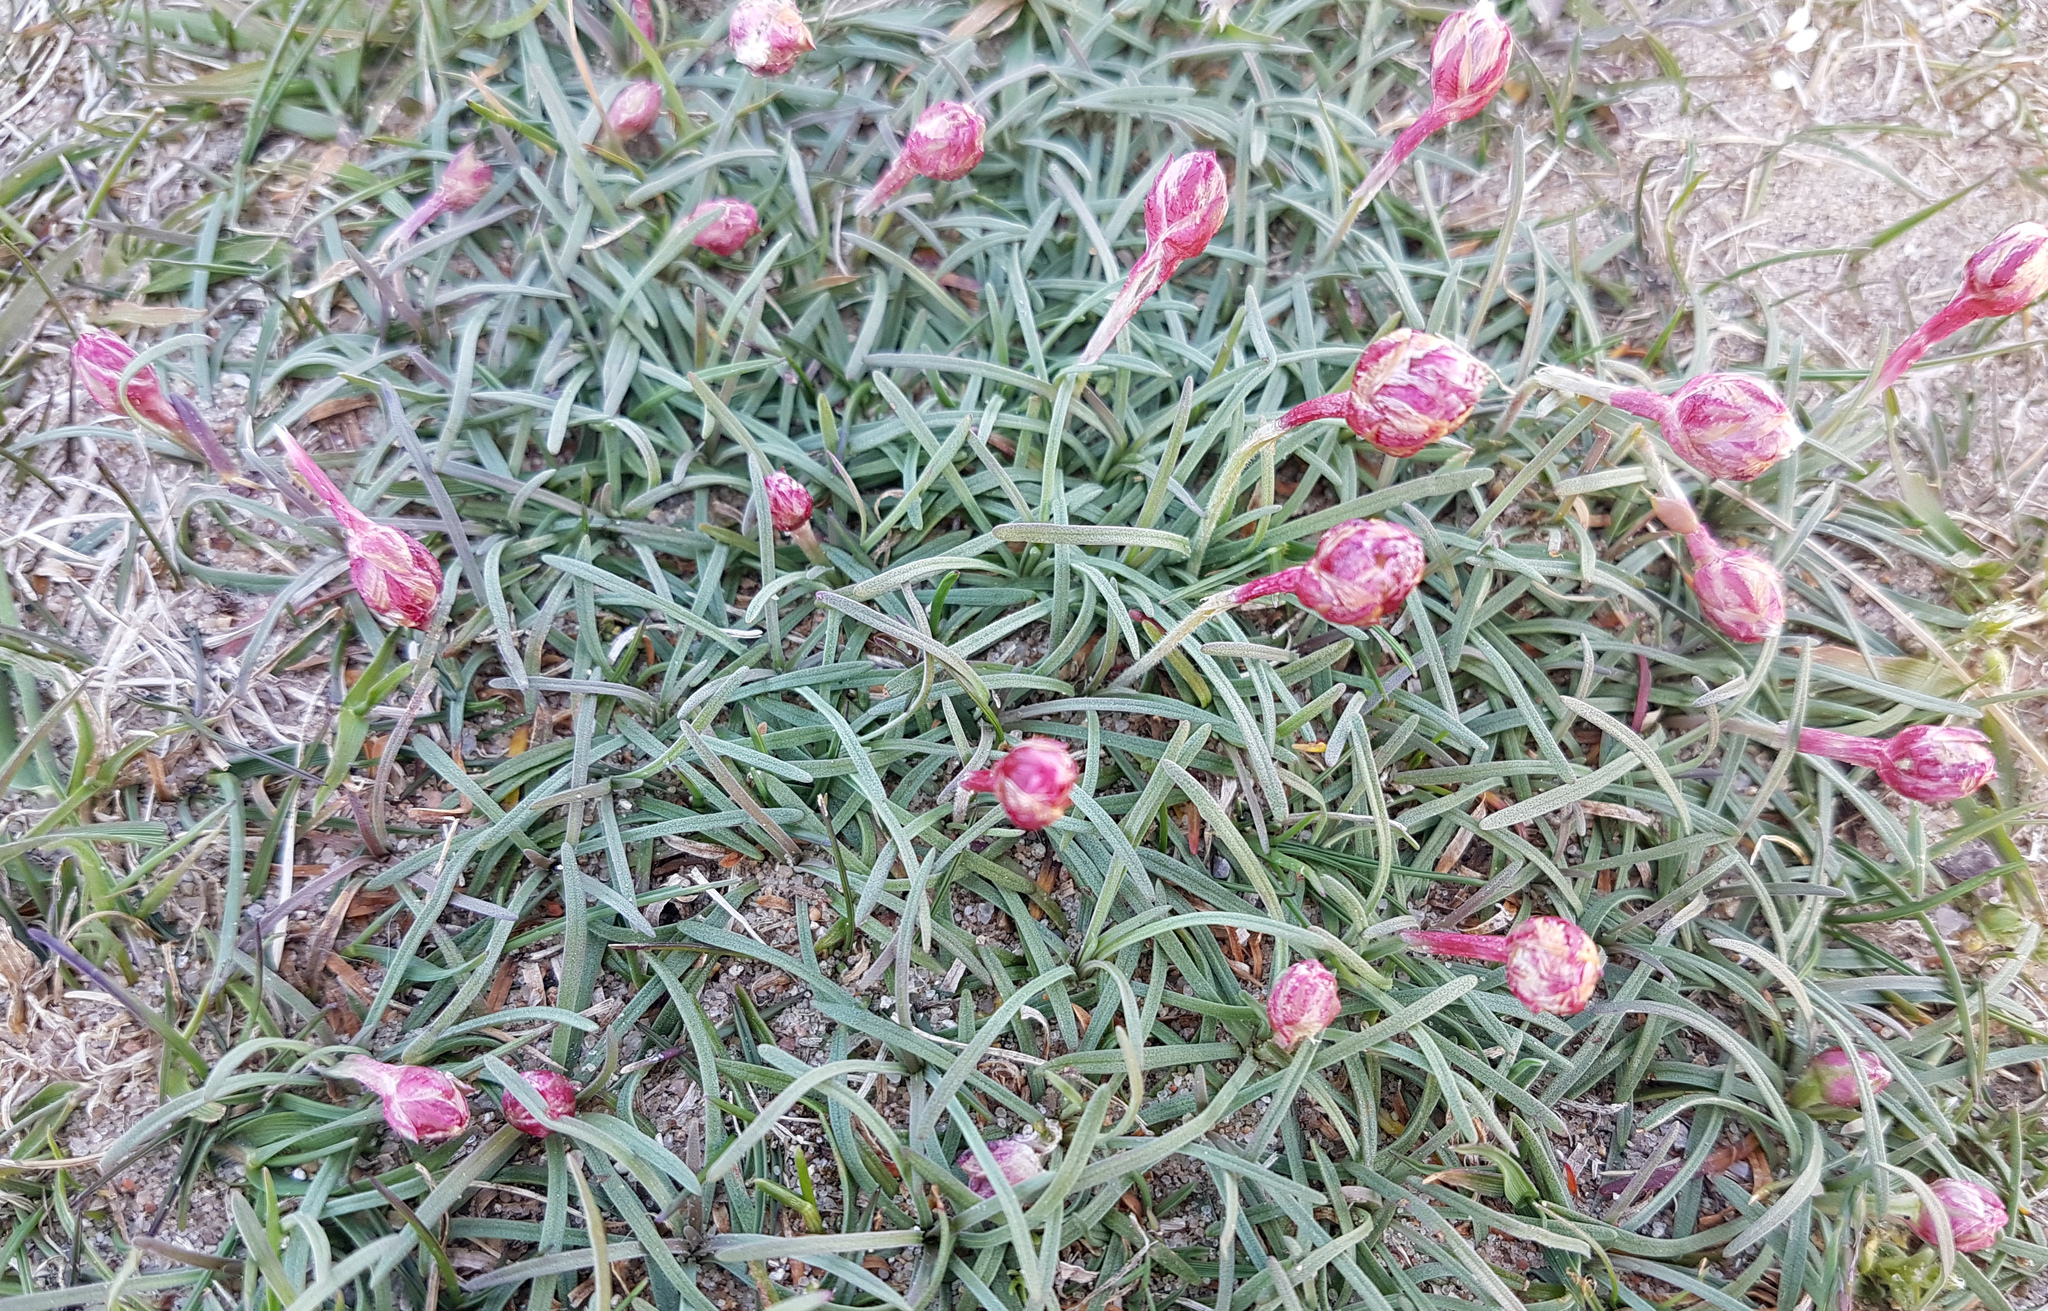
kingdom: Plantae
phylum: Tracheophyta
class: Magnoliopsida
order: Caryophyllales
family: Plumbaginaceae
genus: Armeria
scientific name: Armeria maritima
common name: Thrift
